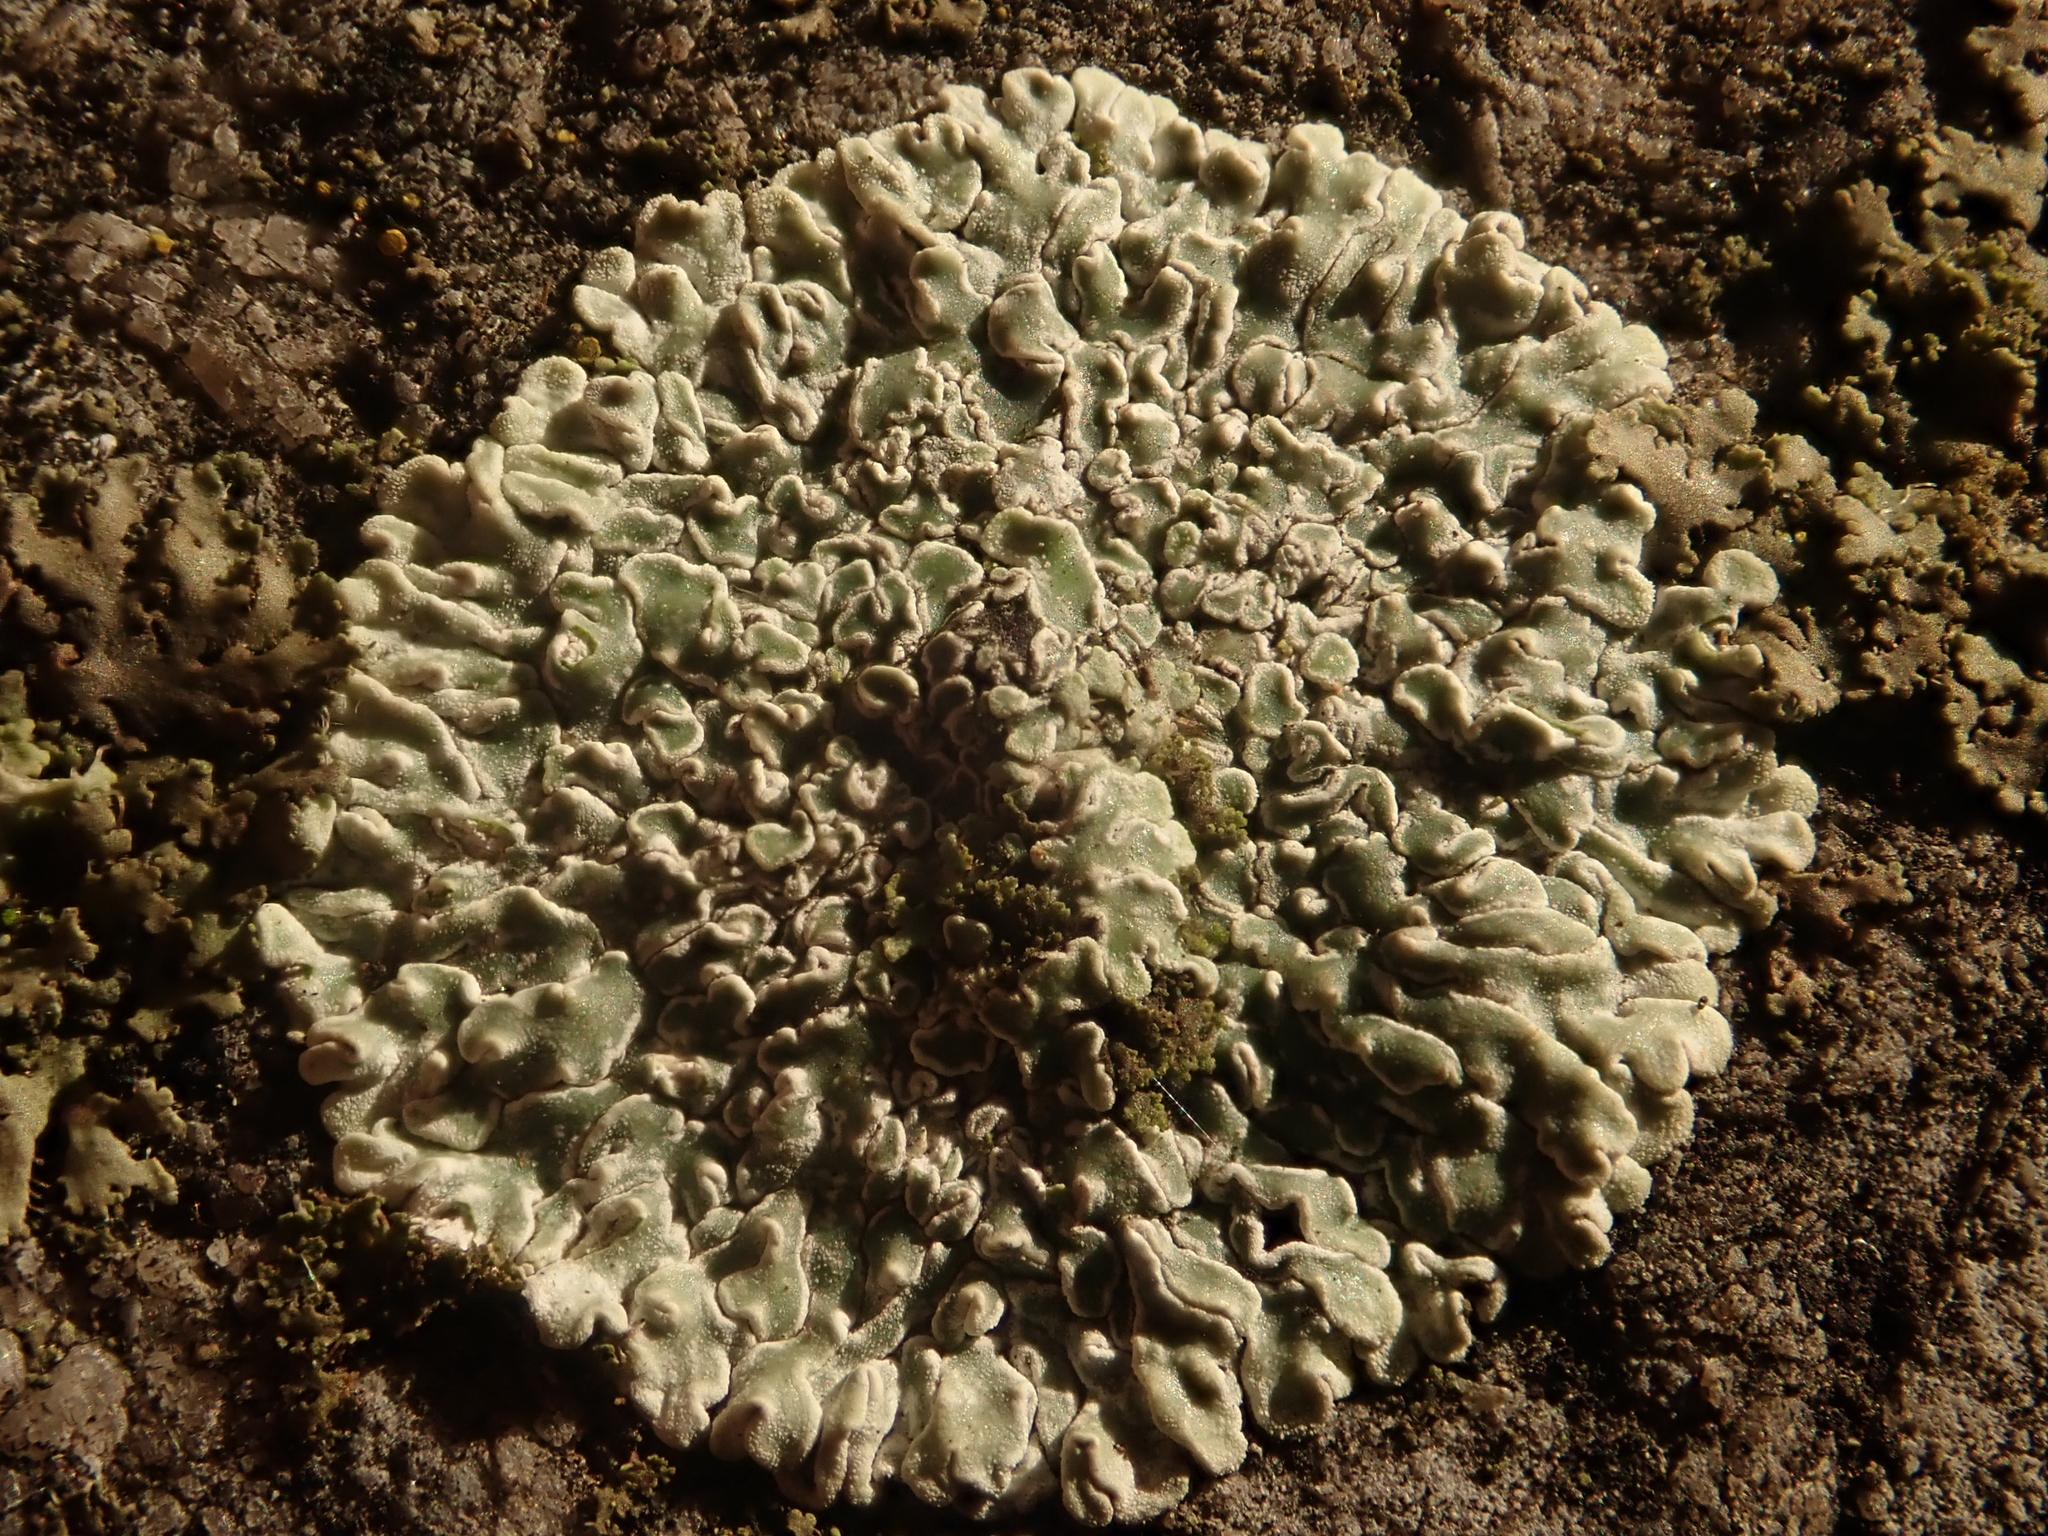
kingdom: Fungi
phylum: Ascomycota
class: Lecanoromycetes
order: Lecanorales
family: Lecanoraceae
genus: Protoparmeliopsis
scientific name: Protoparmeliopsis muralis
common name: Stonewall rim lichen
